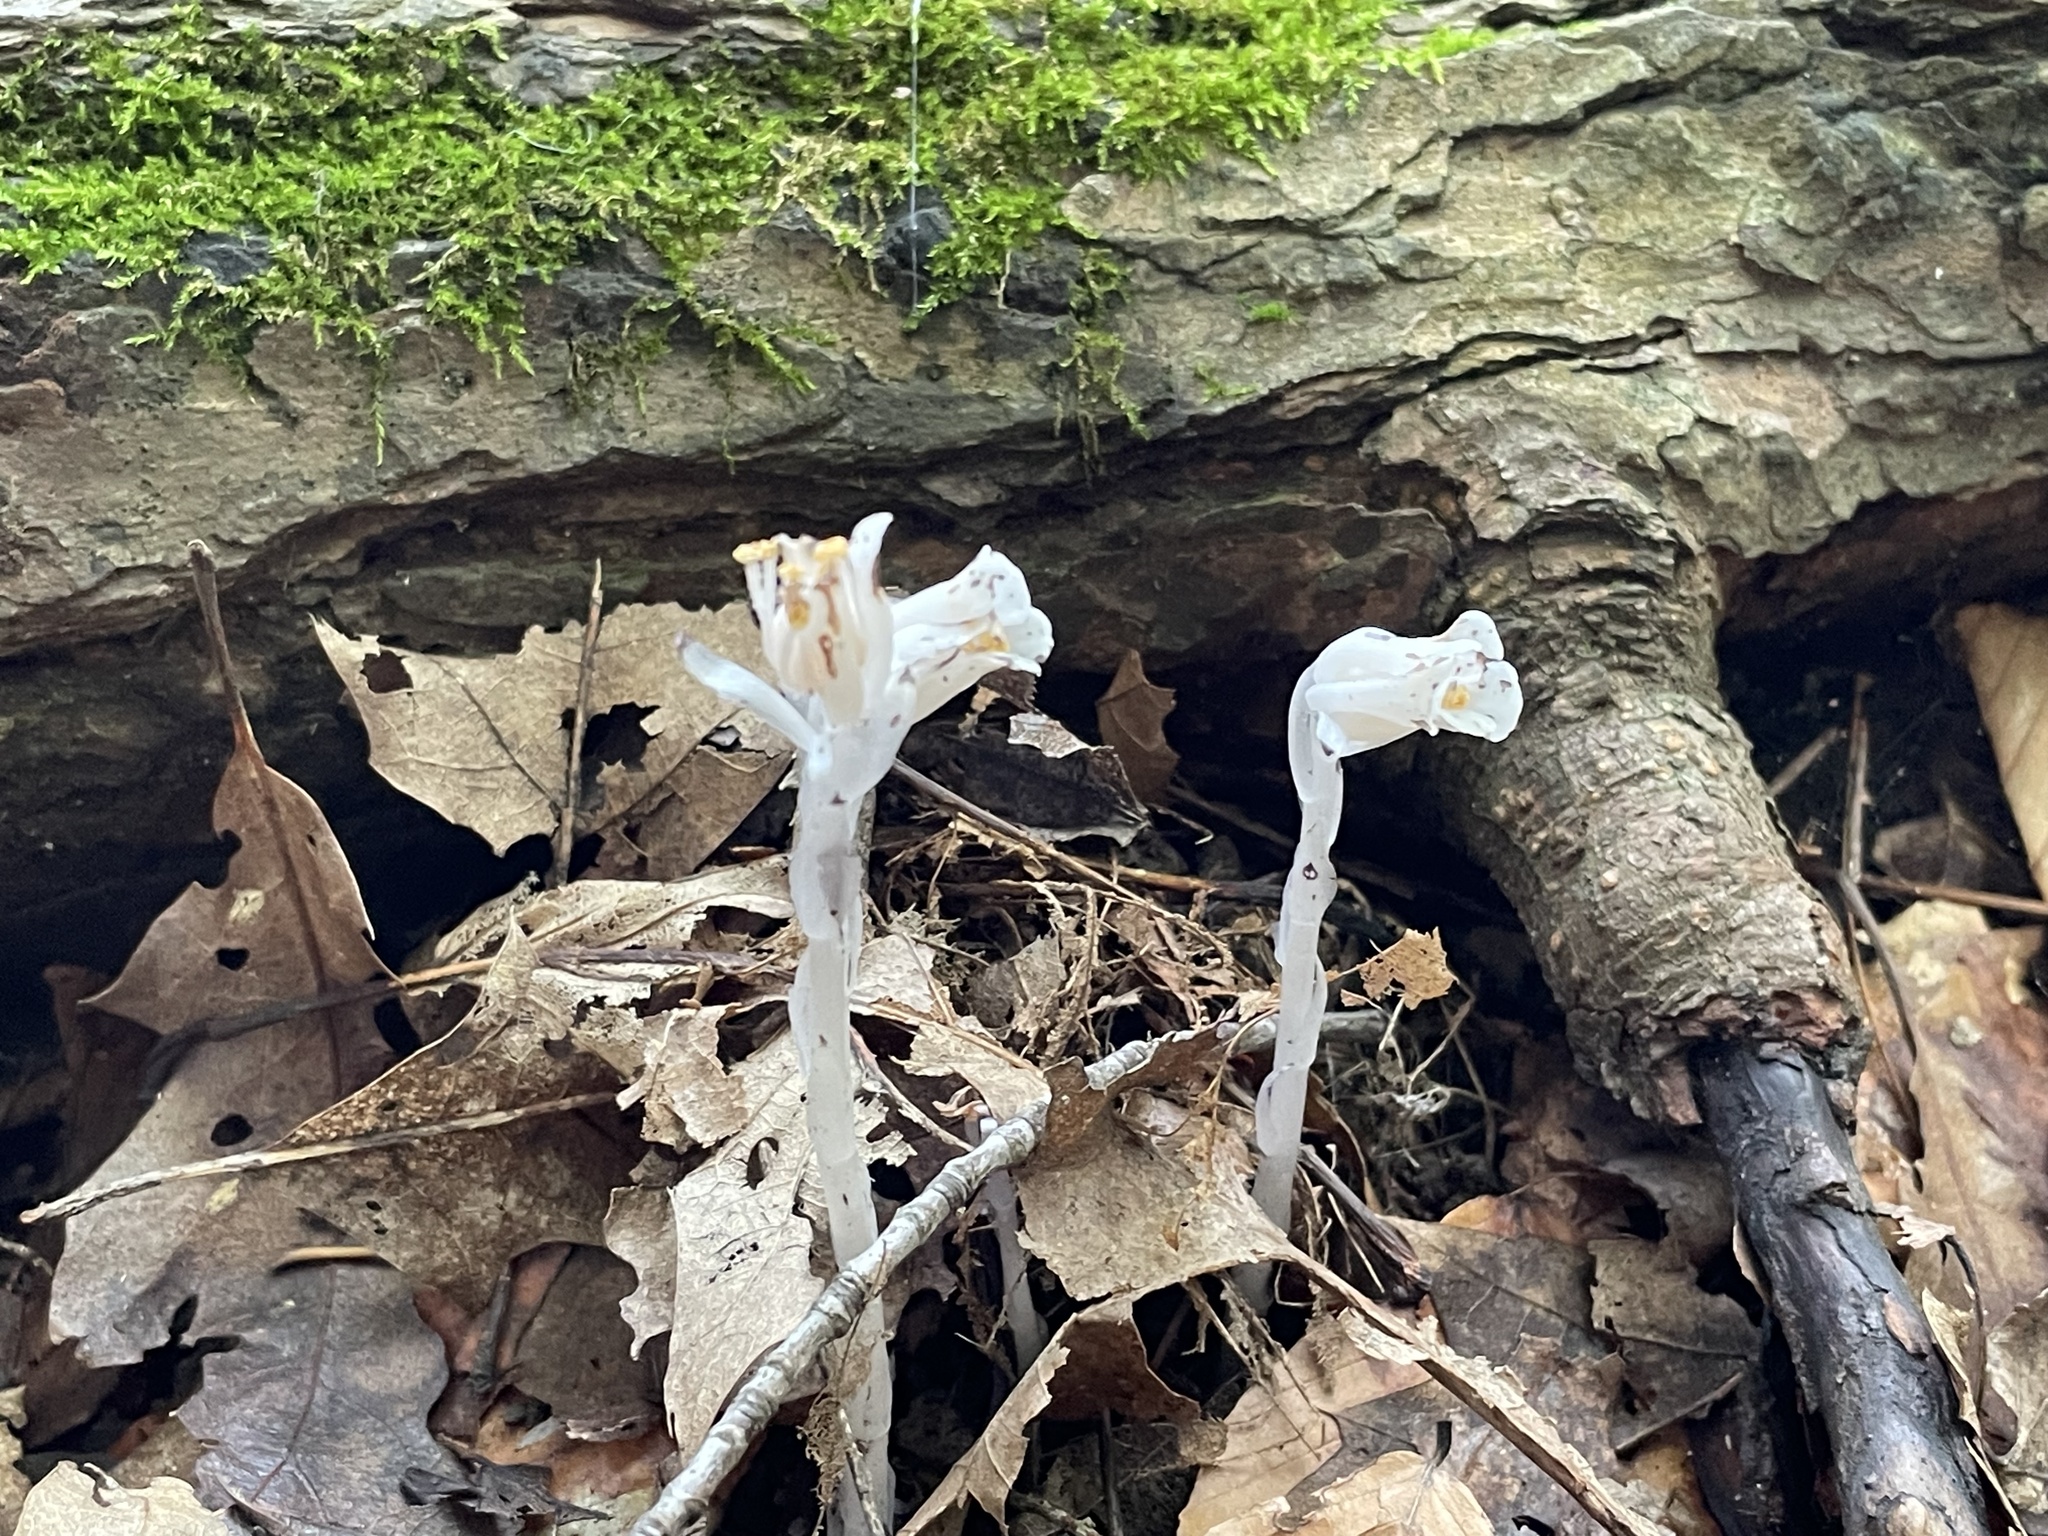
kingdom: Plantae
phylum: Tracheophyta
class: Magnoliopsida
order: Ericales
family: Ericaceae
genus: Monotropa
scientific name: Monotropa uniflora
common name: Convulsion root
